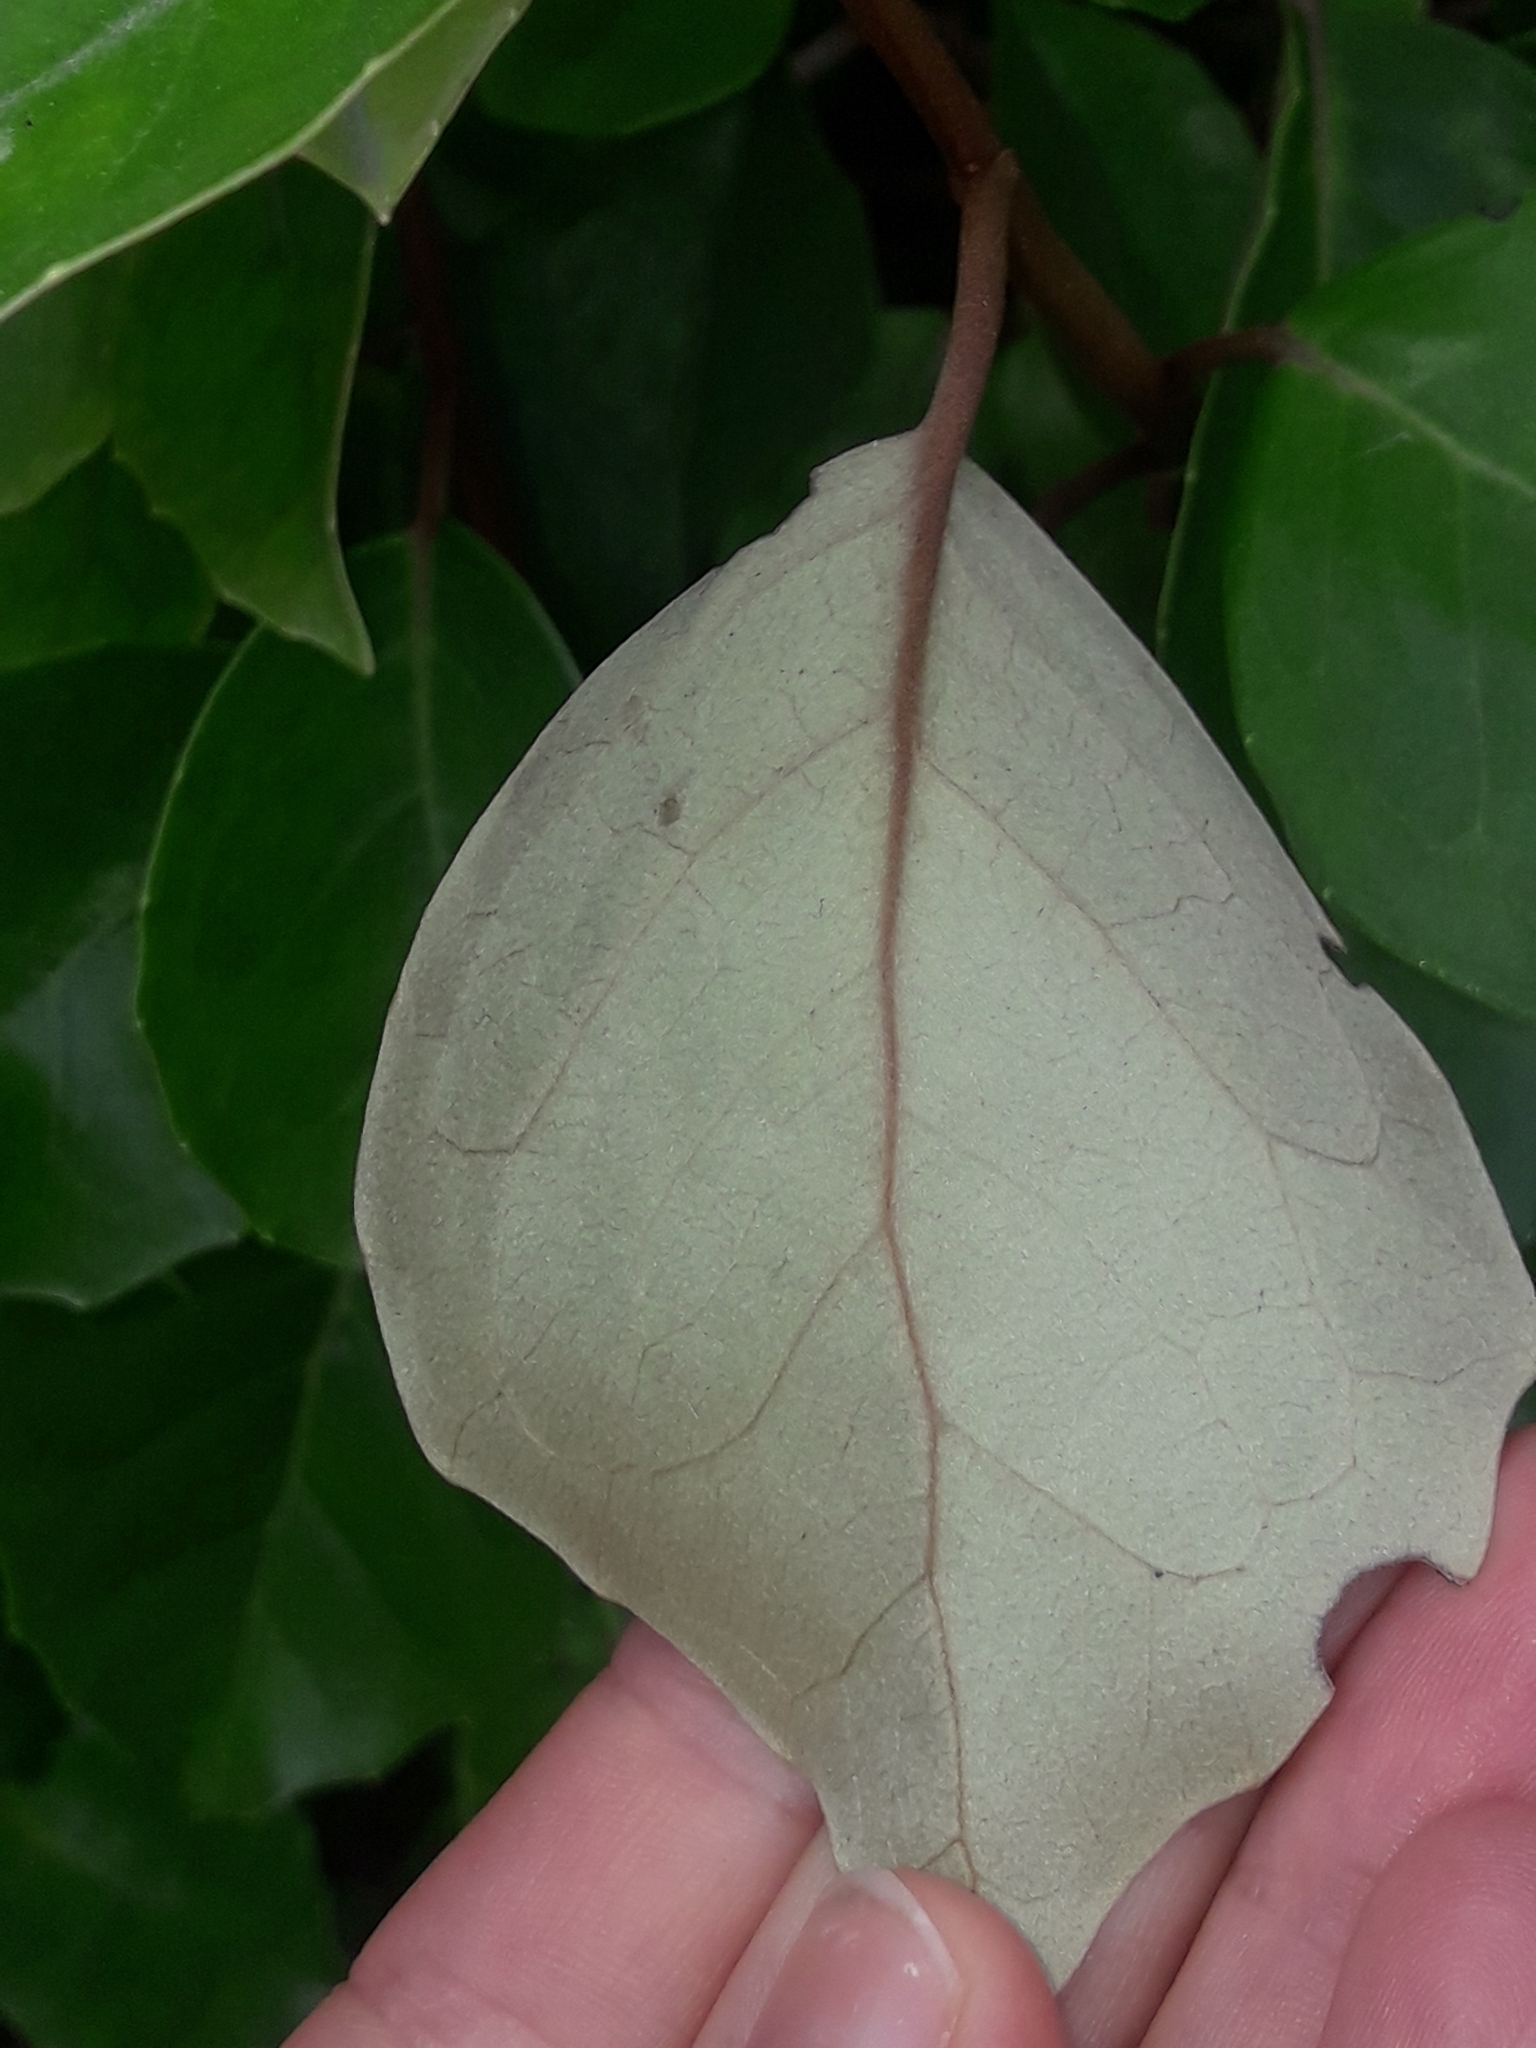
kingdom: Plantae
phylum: Tracheophyta
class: Magnoliopsida
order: Asterales
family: Asteraceae
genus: Olearia
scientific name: Olearia arborescens
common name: Glossy tree daisy
